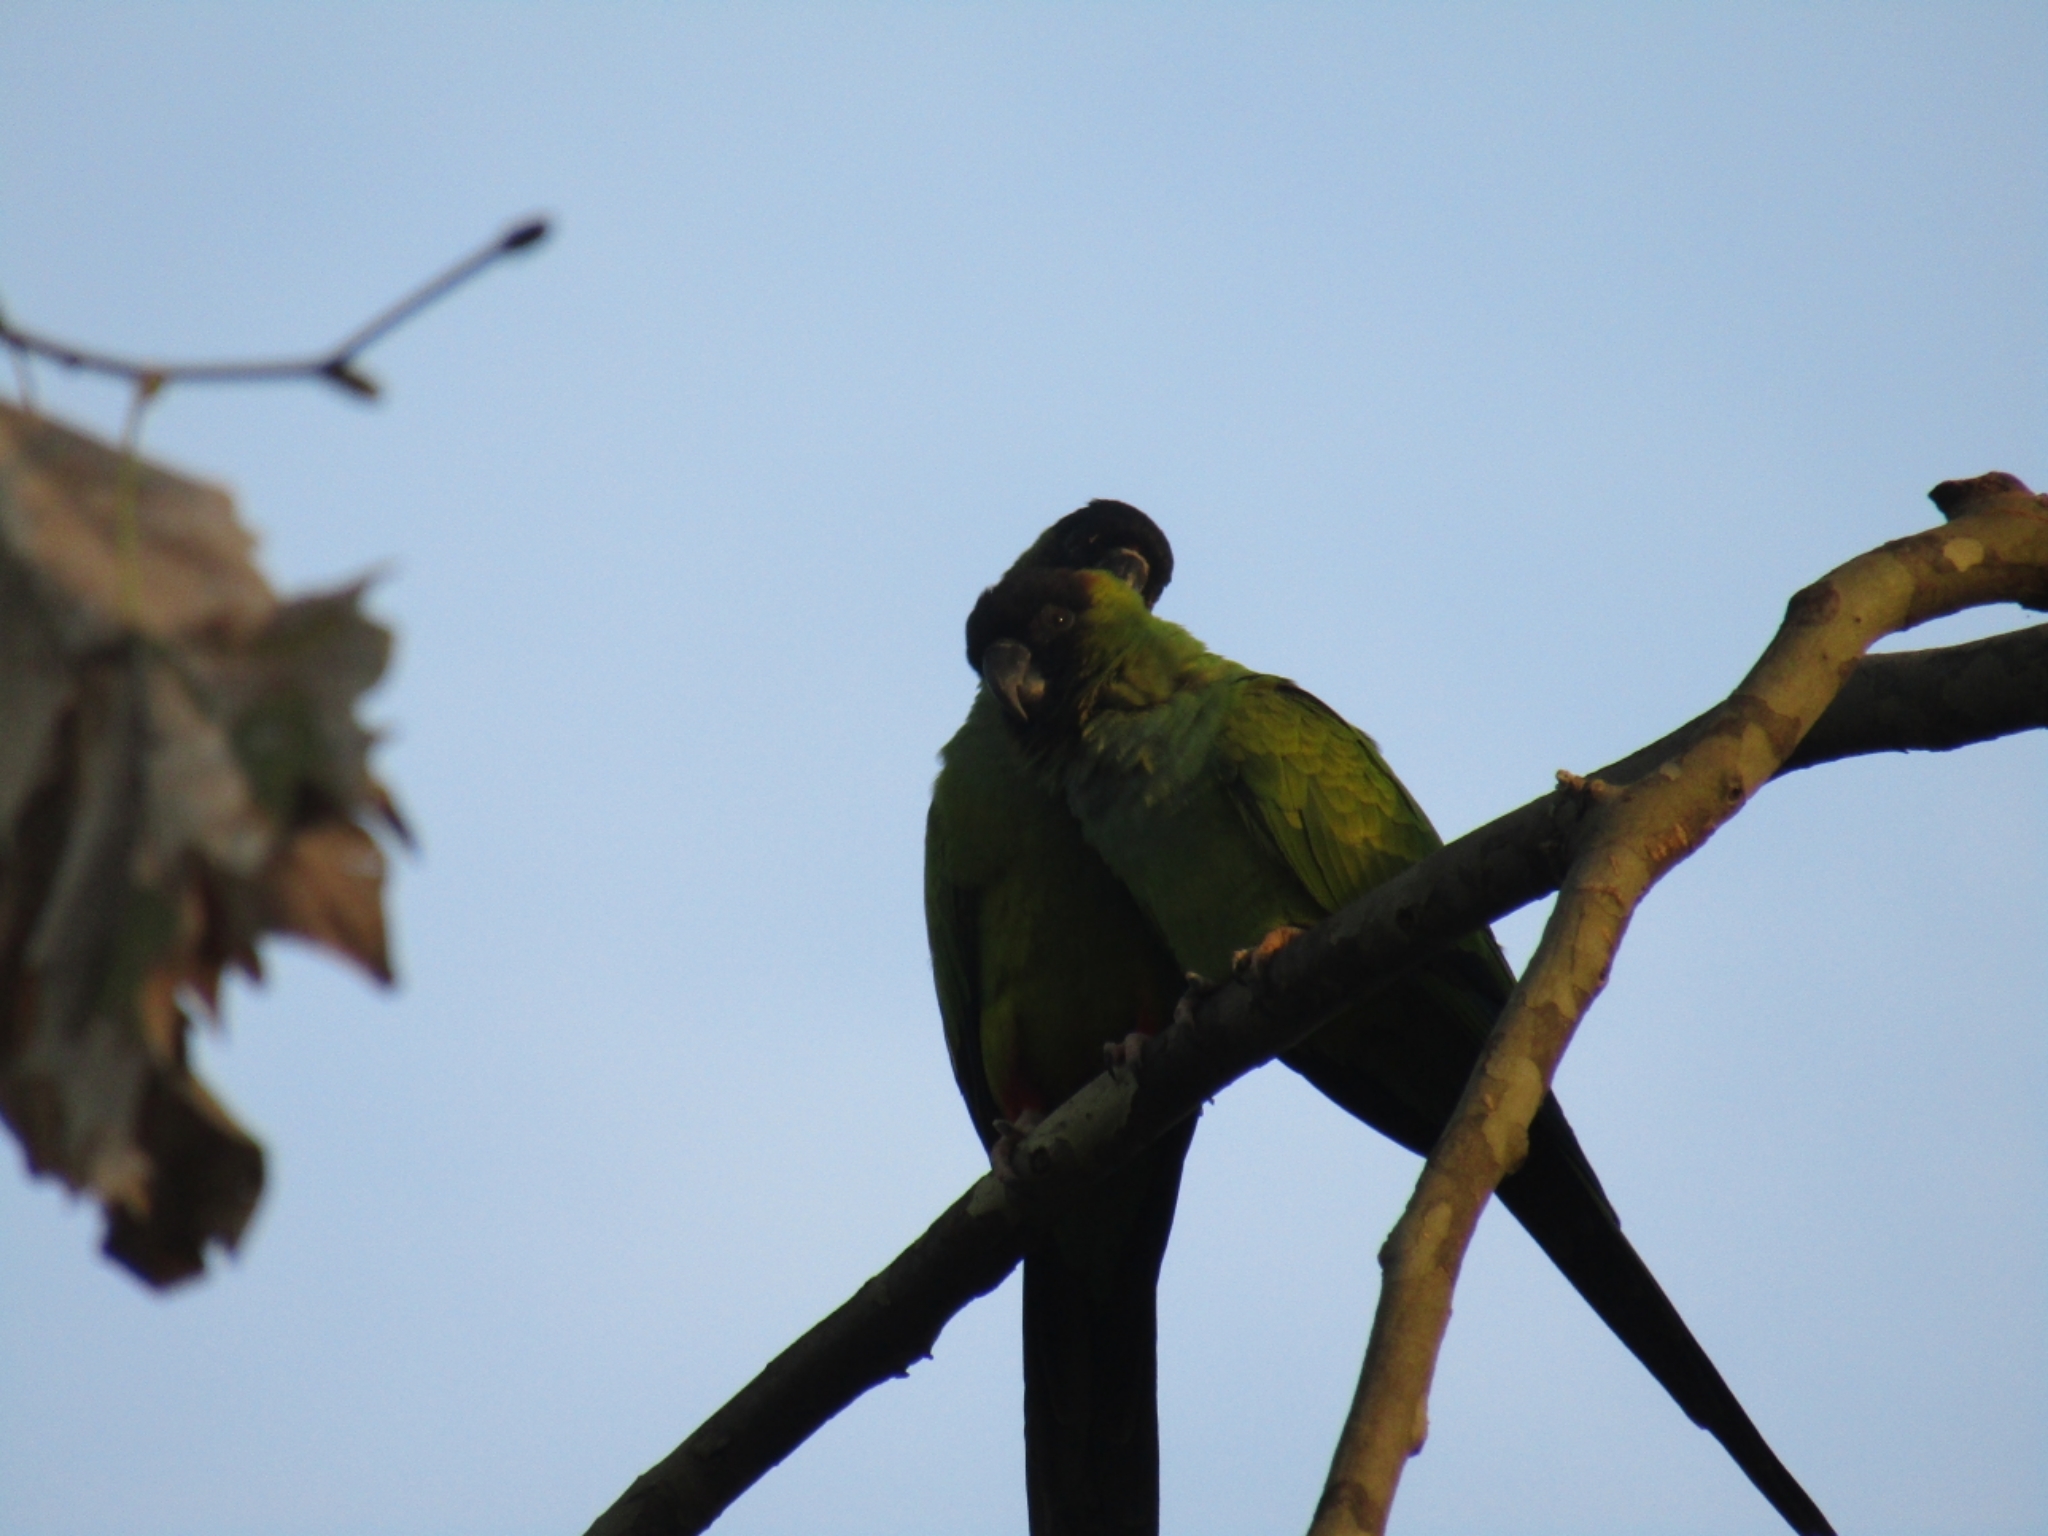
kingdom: Animalia
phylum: Chordata
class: Aves
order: Psittaciformes
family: Psittacidae
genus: Nandayus
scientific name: Nandayus nenday
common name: Nanday parakeet
